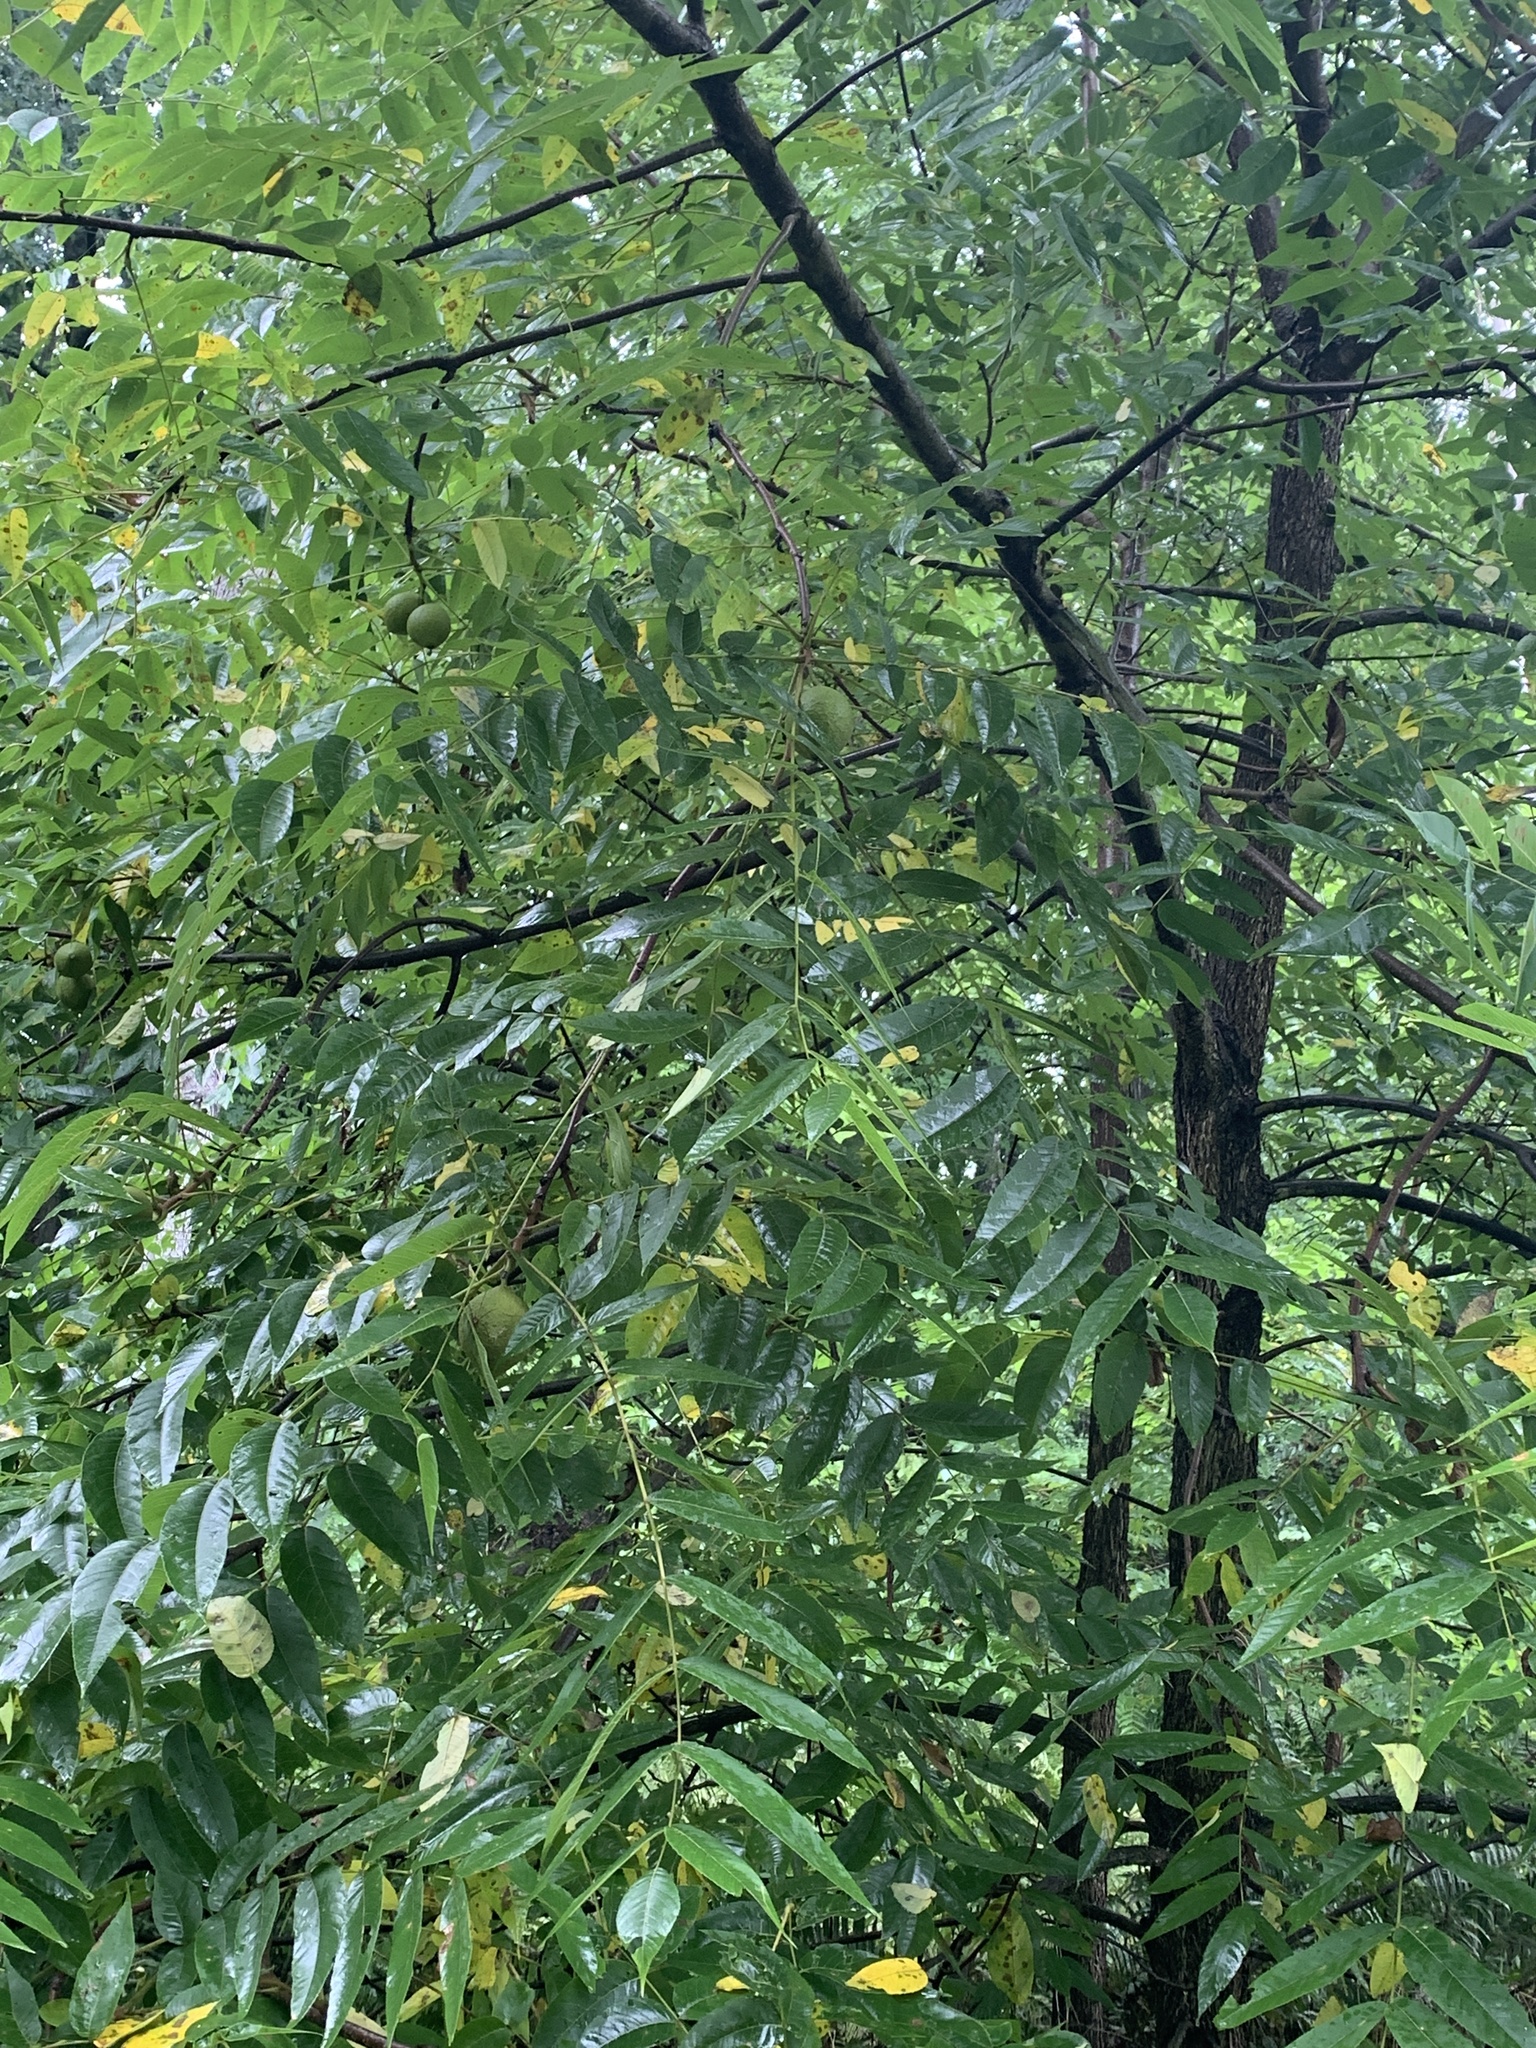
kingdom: Plantae
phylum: Tracheophyta
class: Magnoliopsida
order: Fagales
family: Juglandaceae
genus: Juglans
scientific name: Juglans nigra
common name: Black walnut
